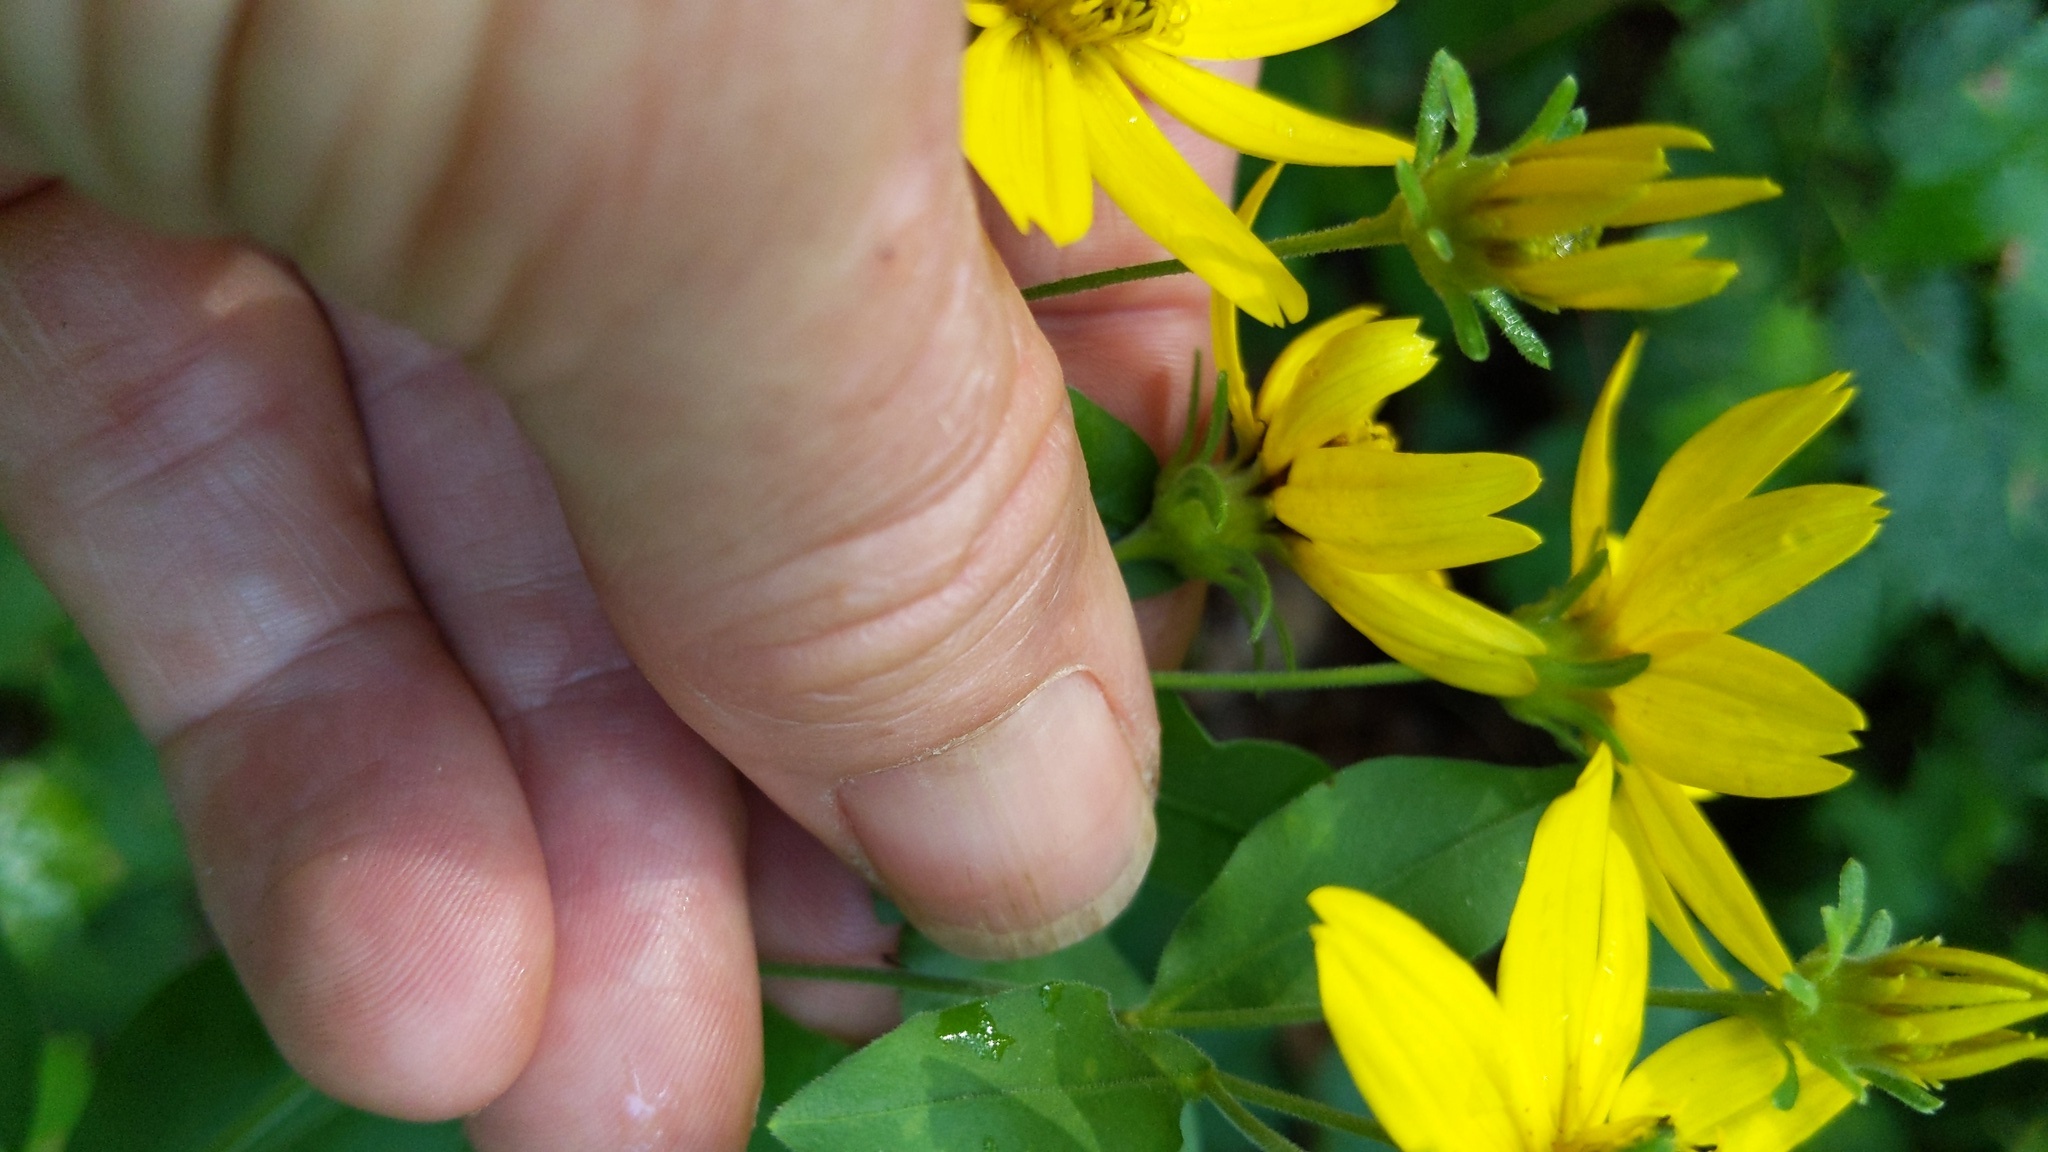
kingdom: Plantae
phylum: Tracheophyta
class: Magnoliopsida
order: Asterales
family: Asteraceae
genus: Coreopsis
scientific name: Coreopsis major
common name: Forest tickseed
